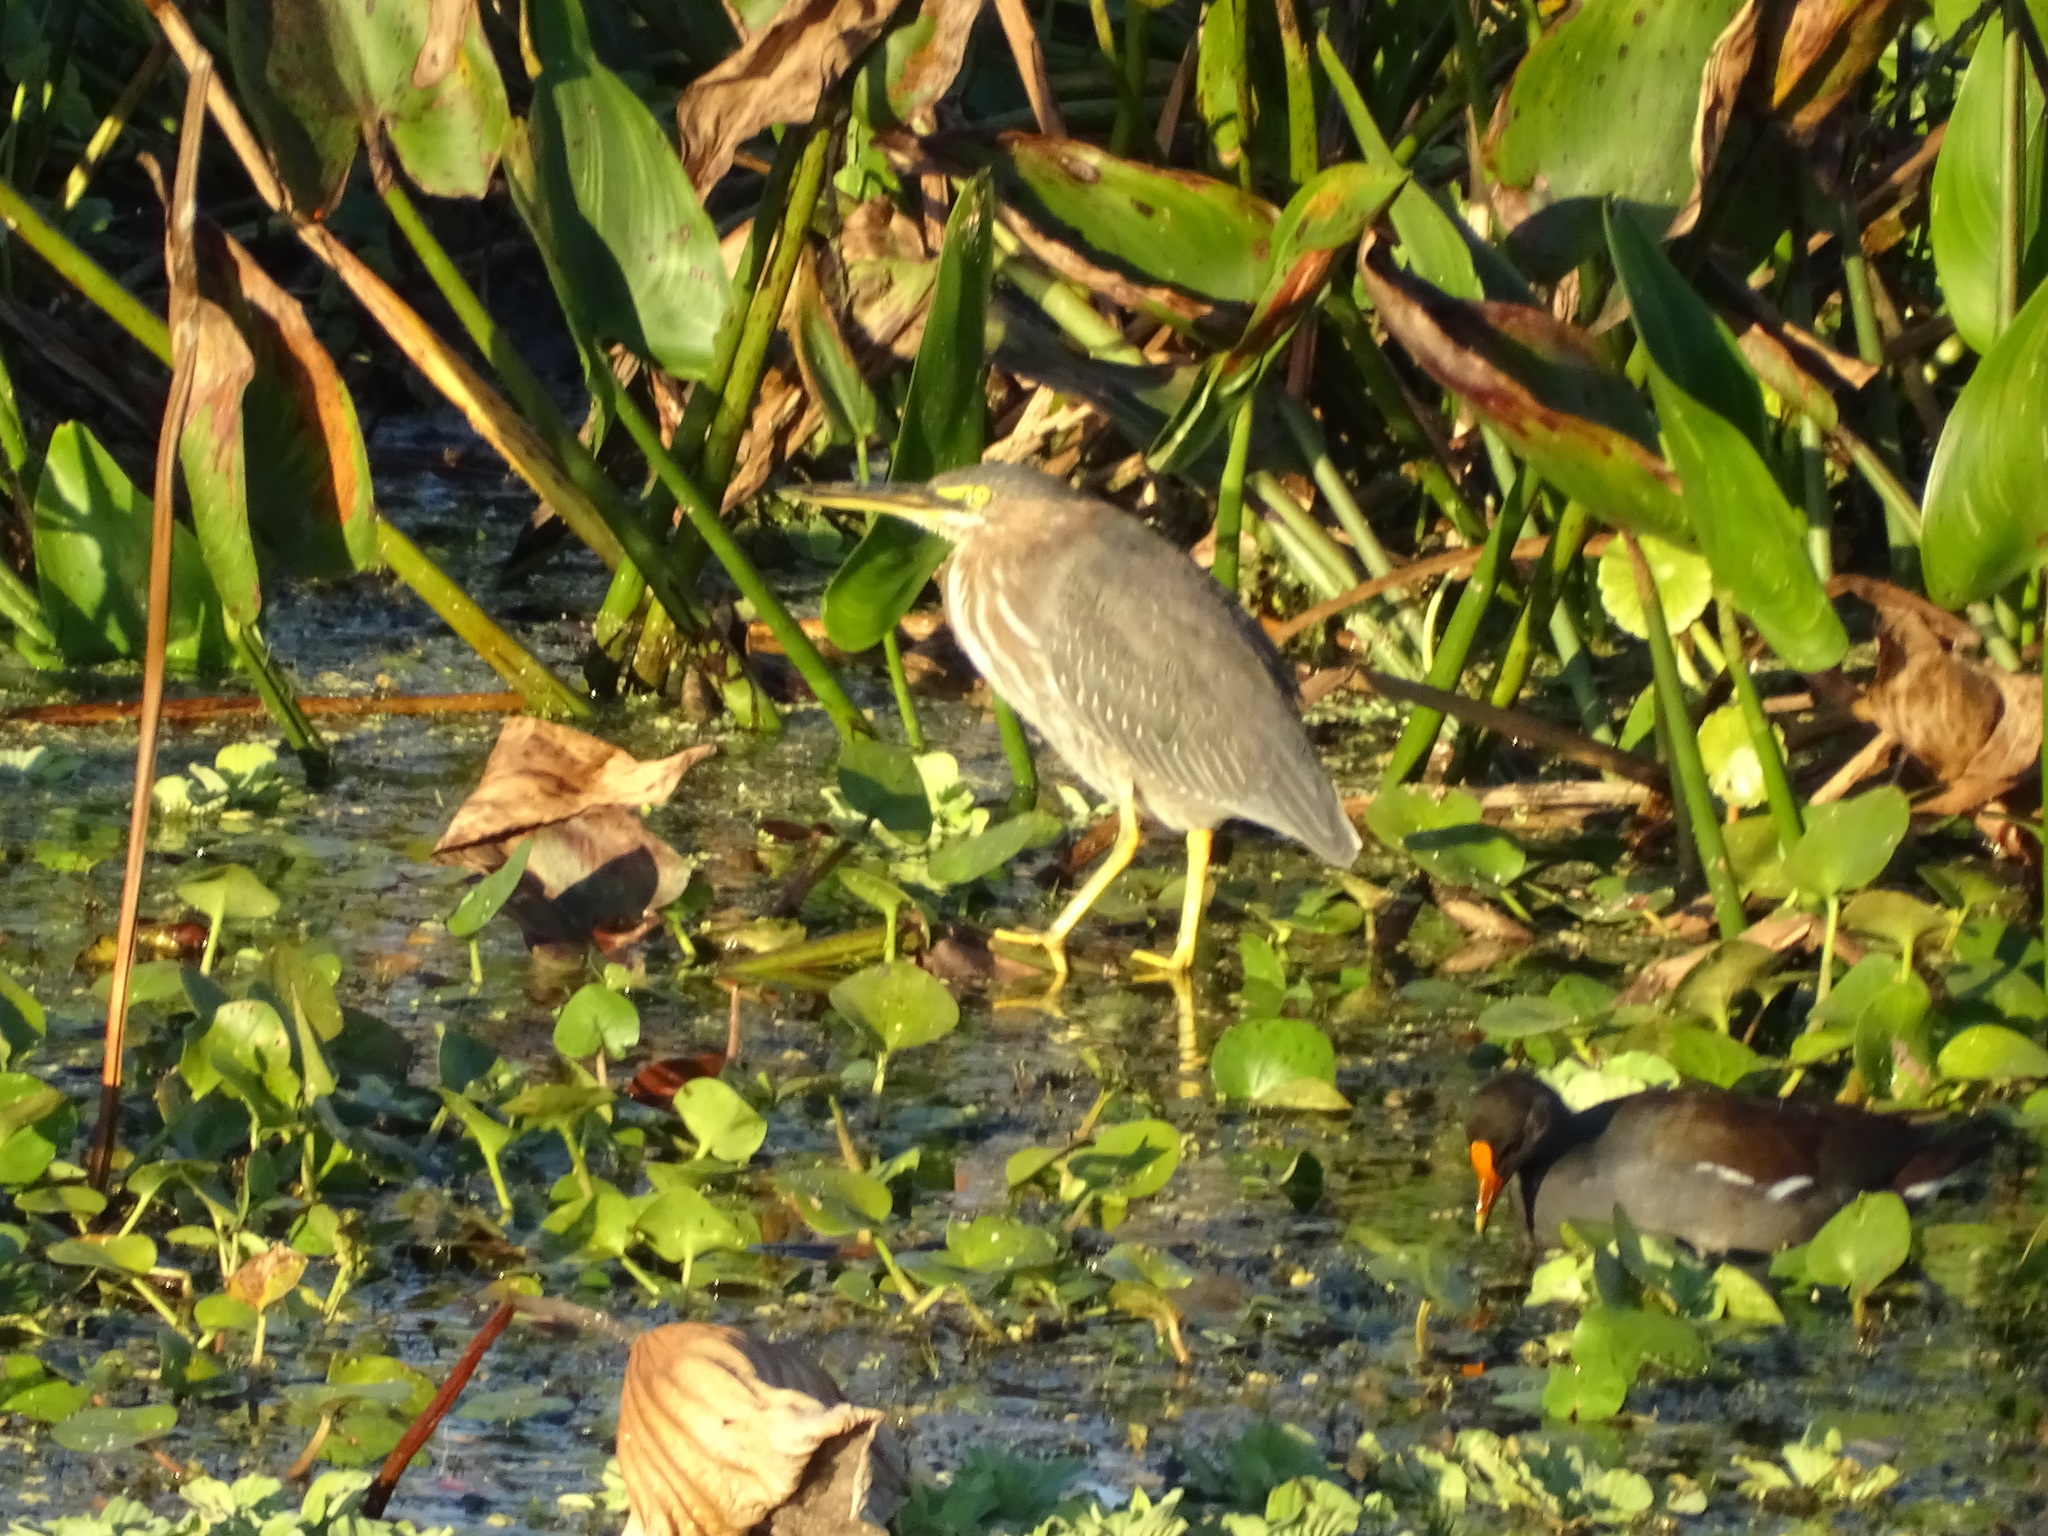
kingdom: Animalia
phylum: Chordata
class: Aves
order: Pelecaniformes
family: Ardeidae
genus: Butorides
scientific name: Butorides virescens
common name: Green heron
